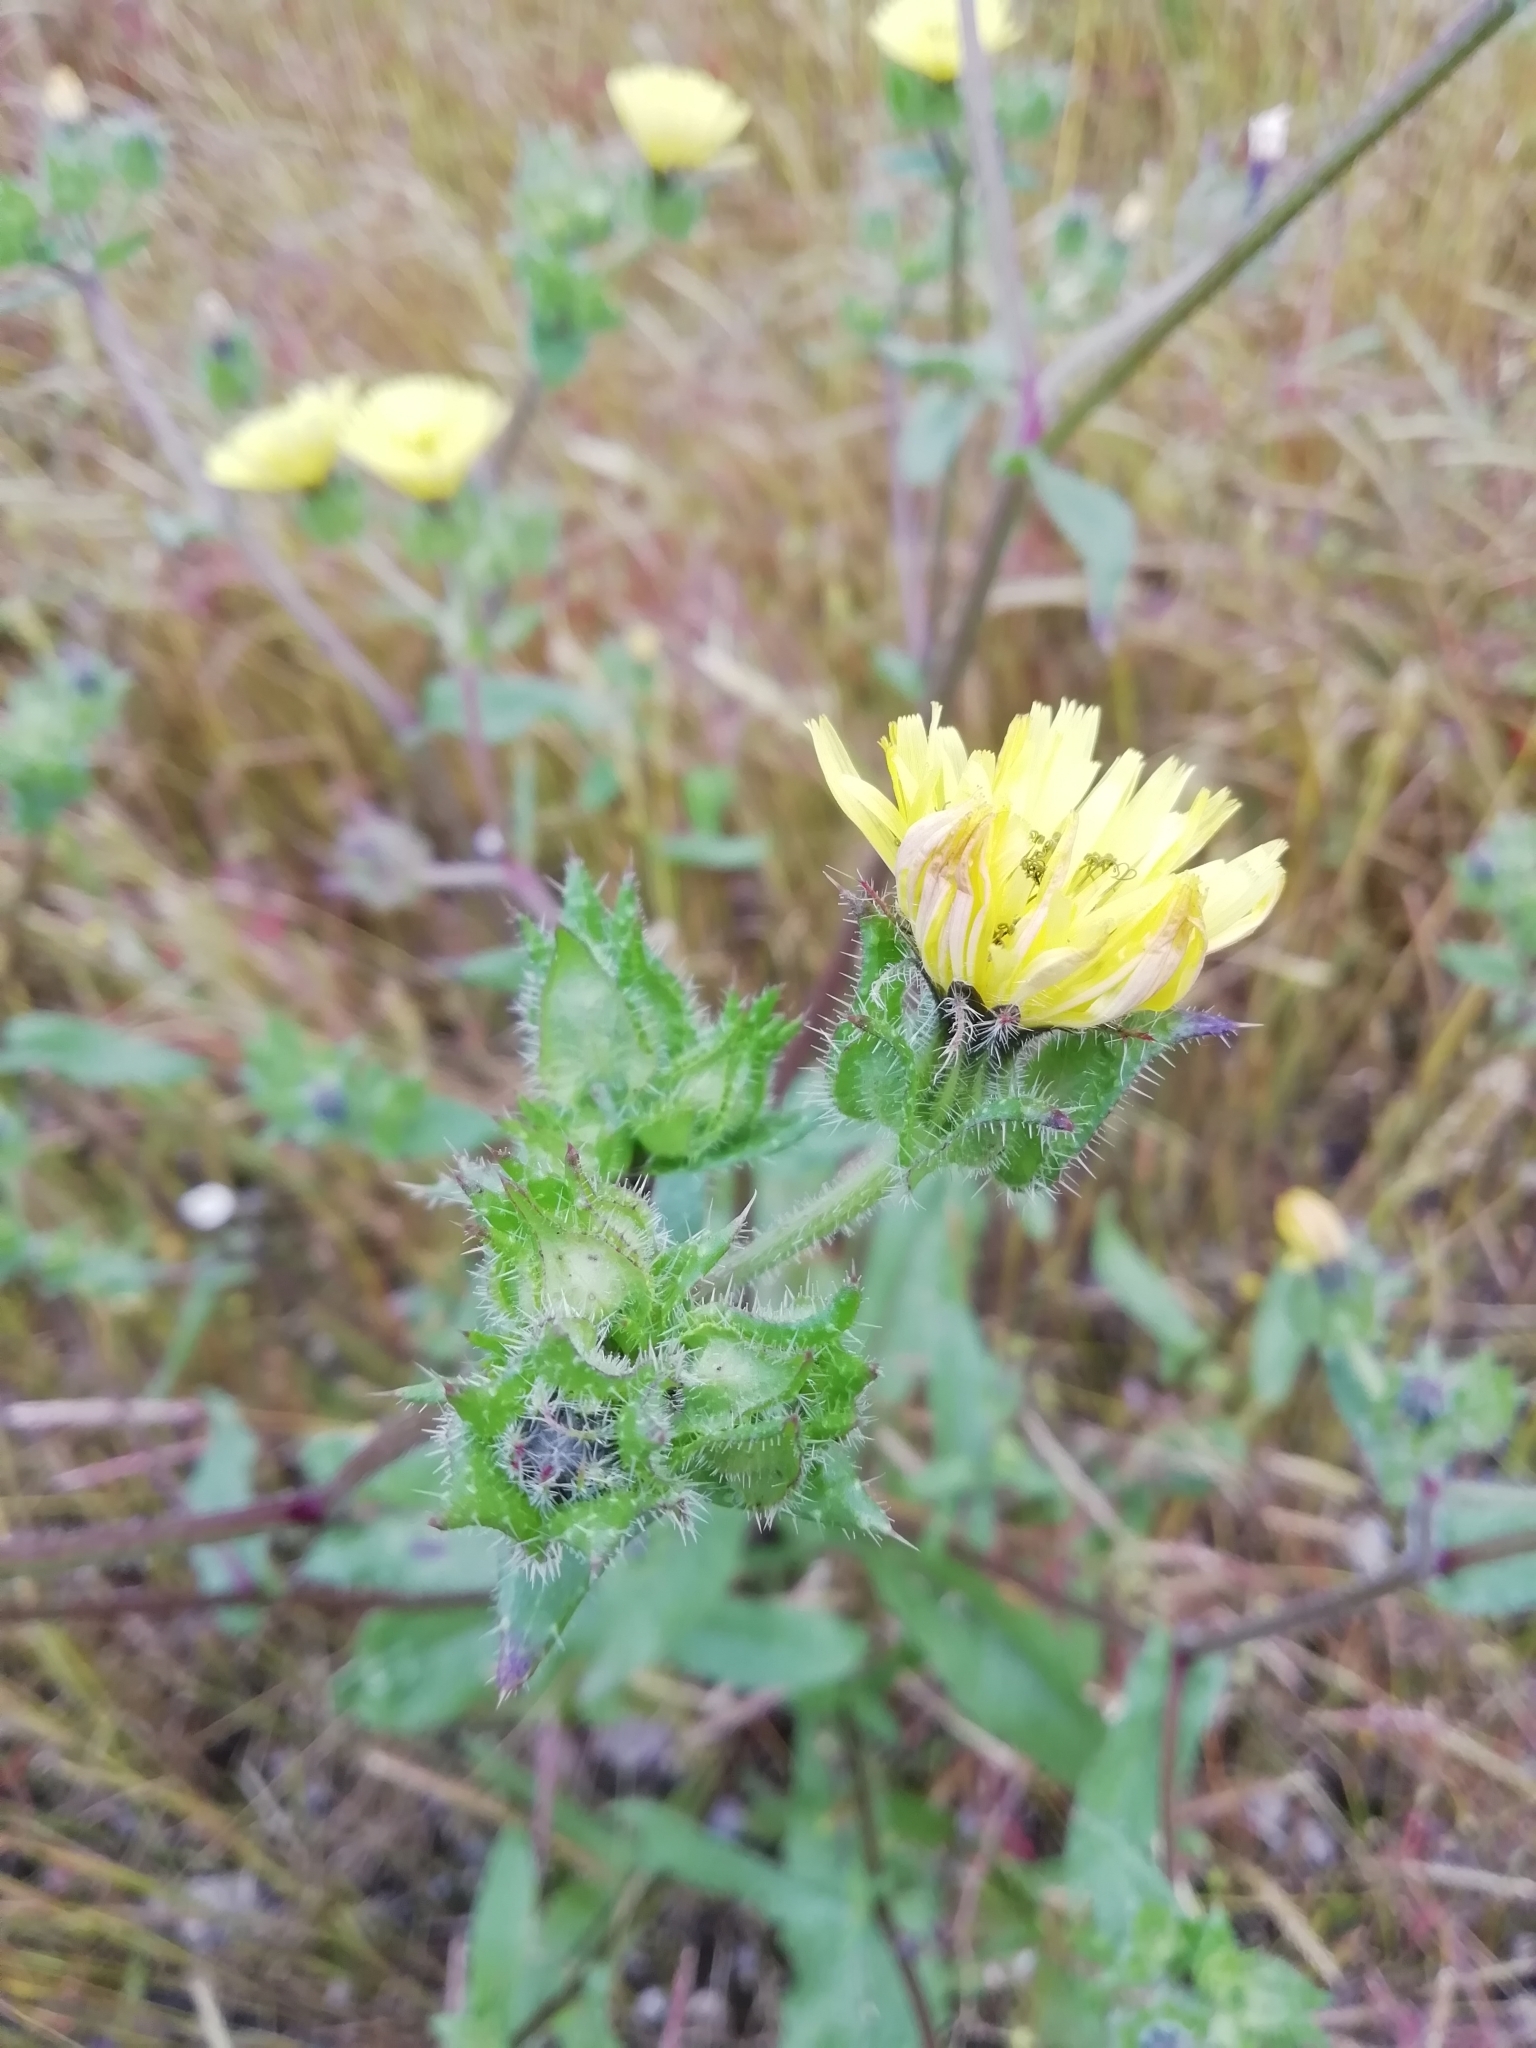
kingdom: Plantae
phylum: Tracheophyta
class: Magnoliopsida
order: Asterales
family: Asteraceae
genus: Helminthotheca
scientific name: Helminthotheca echioides
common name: Ox-tongue
